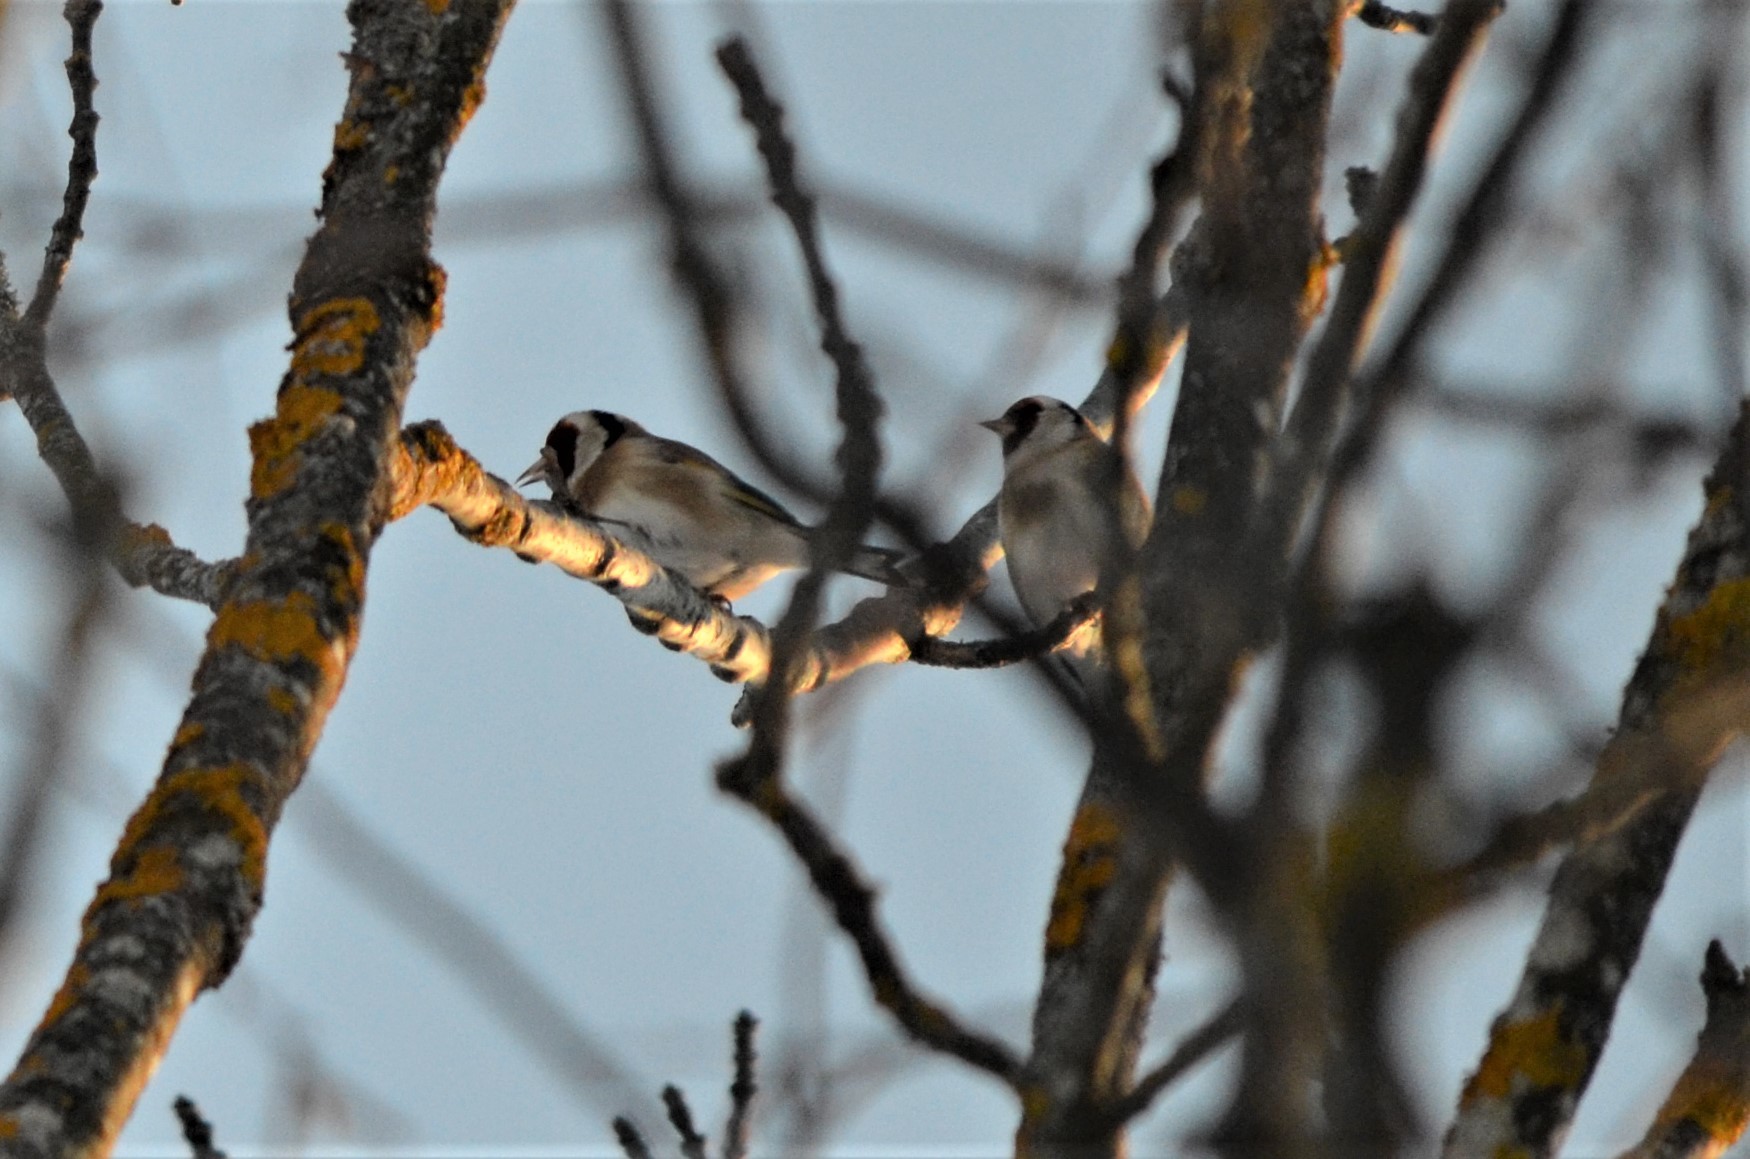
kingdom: Animalia
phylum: Chordata
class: Aves
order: Passeriformes
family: Fringillidae
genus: Carduelis
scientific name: Carduelis carduelis
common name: European goldfinch
